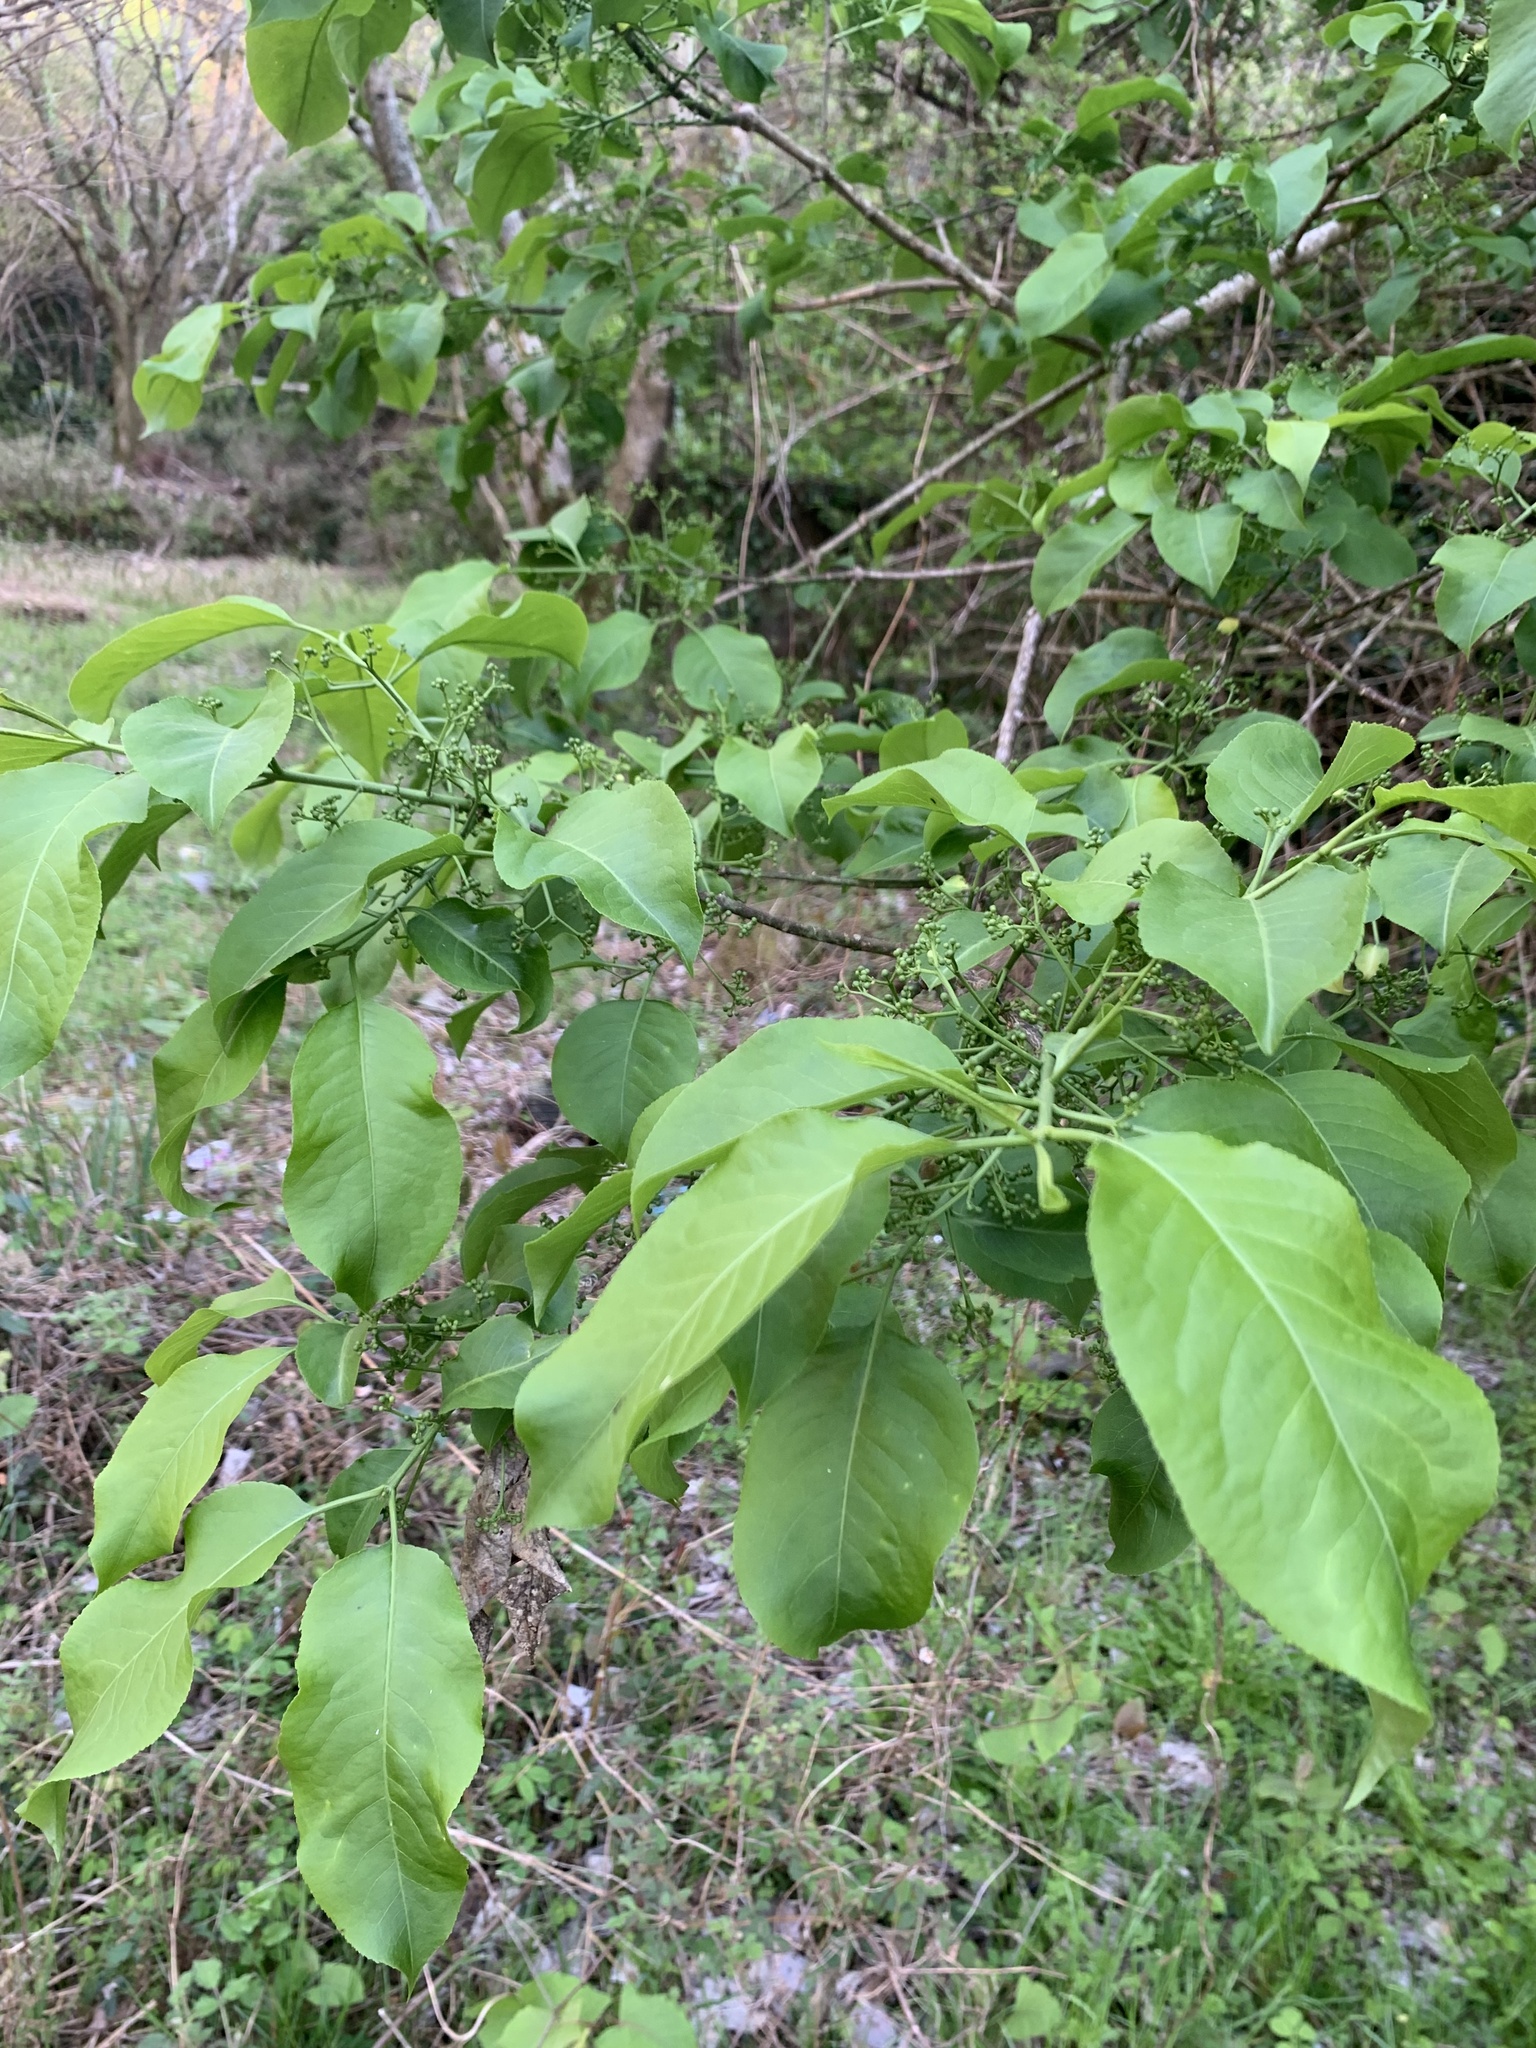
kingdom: Plantae
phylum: Tracheophyta
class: Magnoliopsida
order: Celastrales
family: Celastraceae
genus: Euonymus
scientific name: Euonymus hamiltonianus
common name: Hamilton's spindletree
